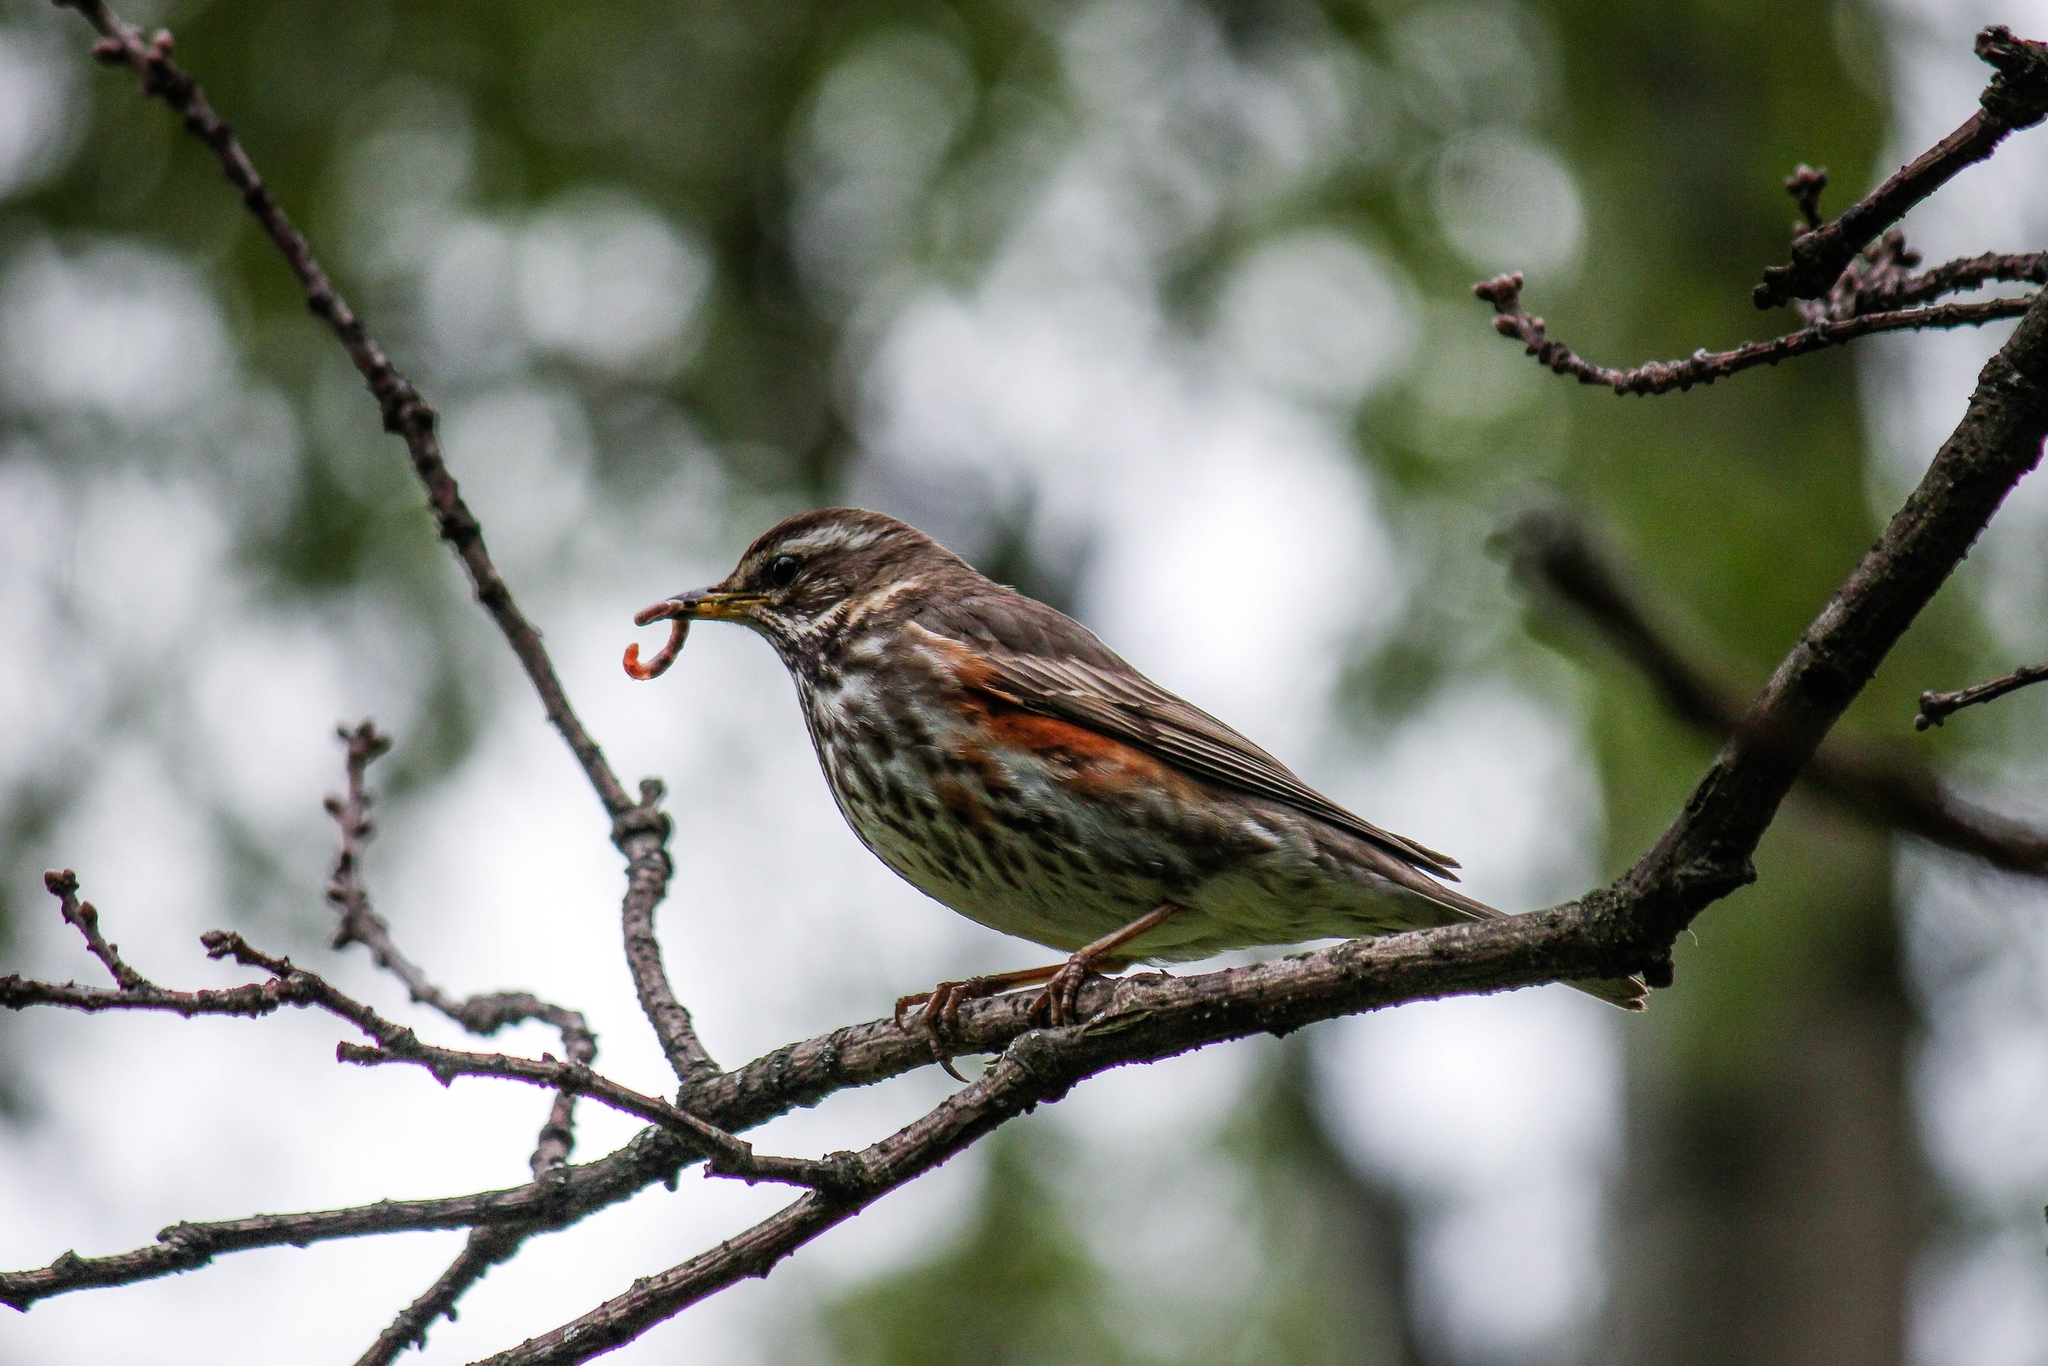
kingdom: Animalia
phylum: Chordata
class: Aves
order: Passeriformes
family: Turdidae
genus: Turdus
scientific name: Turdus iliacus
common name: Redwing
